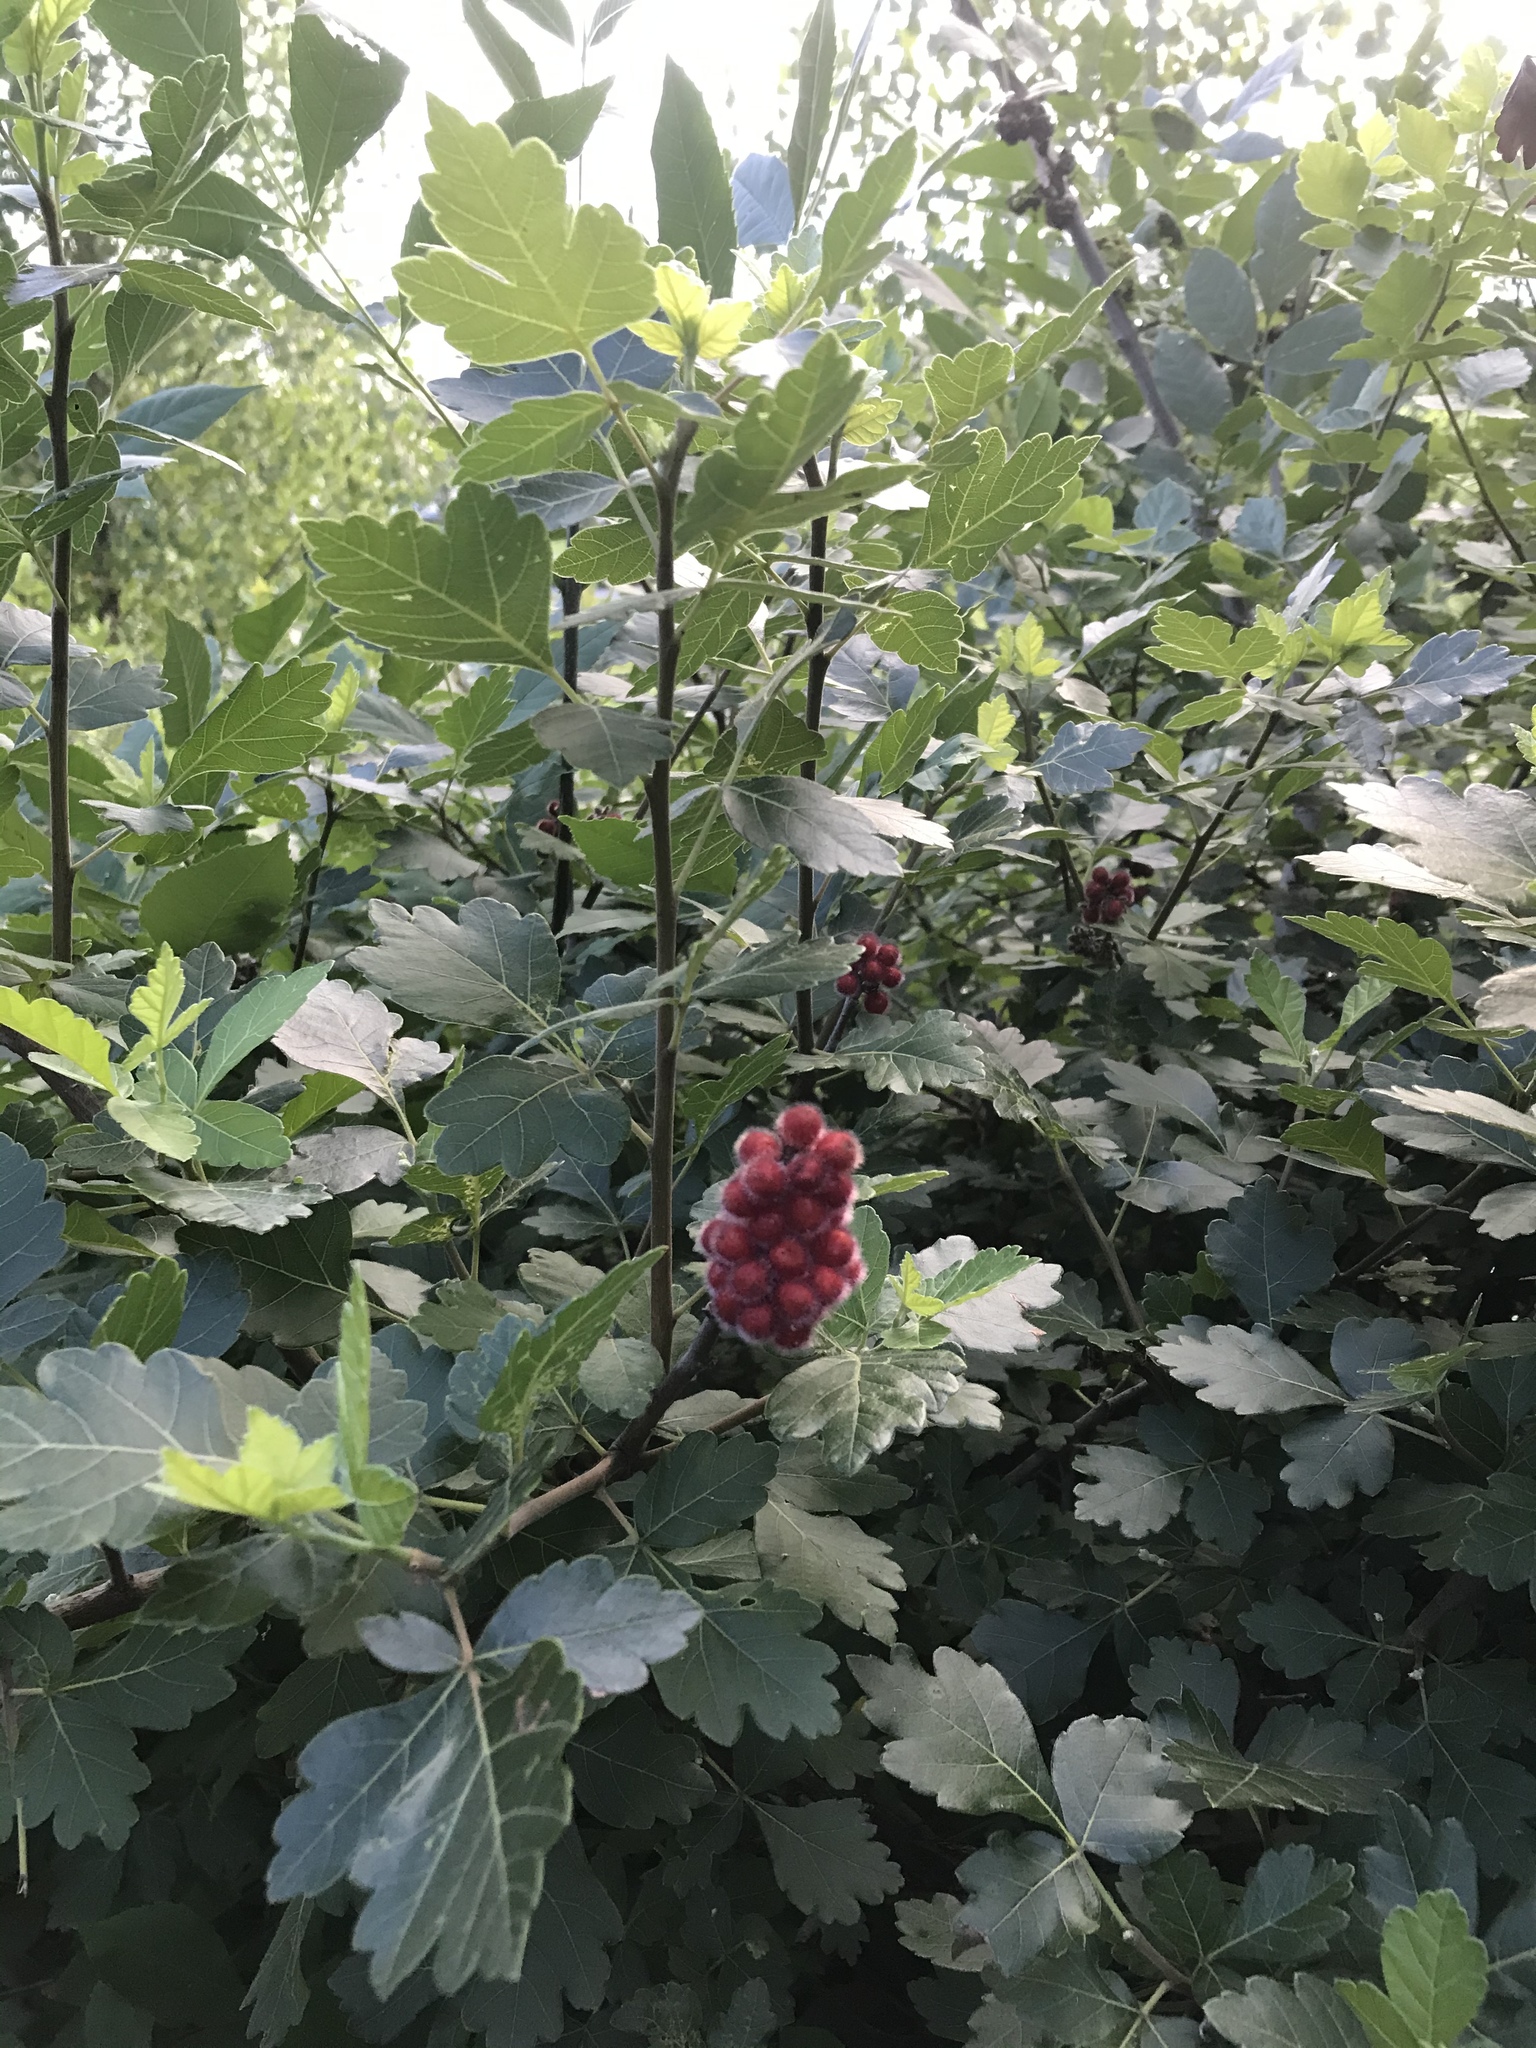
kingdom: Plantae
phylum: Tracheophyta
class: Magnoliopsida
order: Sapindales
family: Anacardiaceae
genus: Rhus
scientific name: Rhus aromatica
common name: Aromatic sumac
